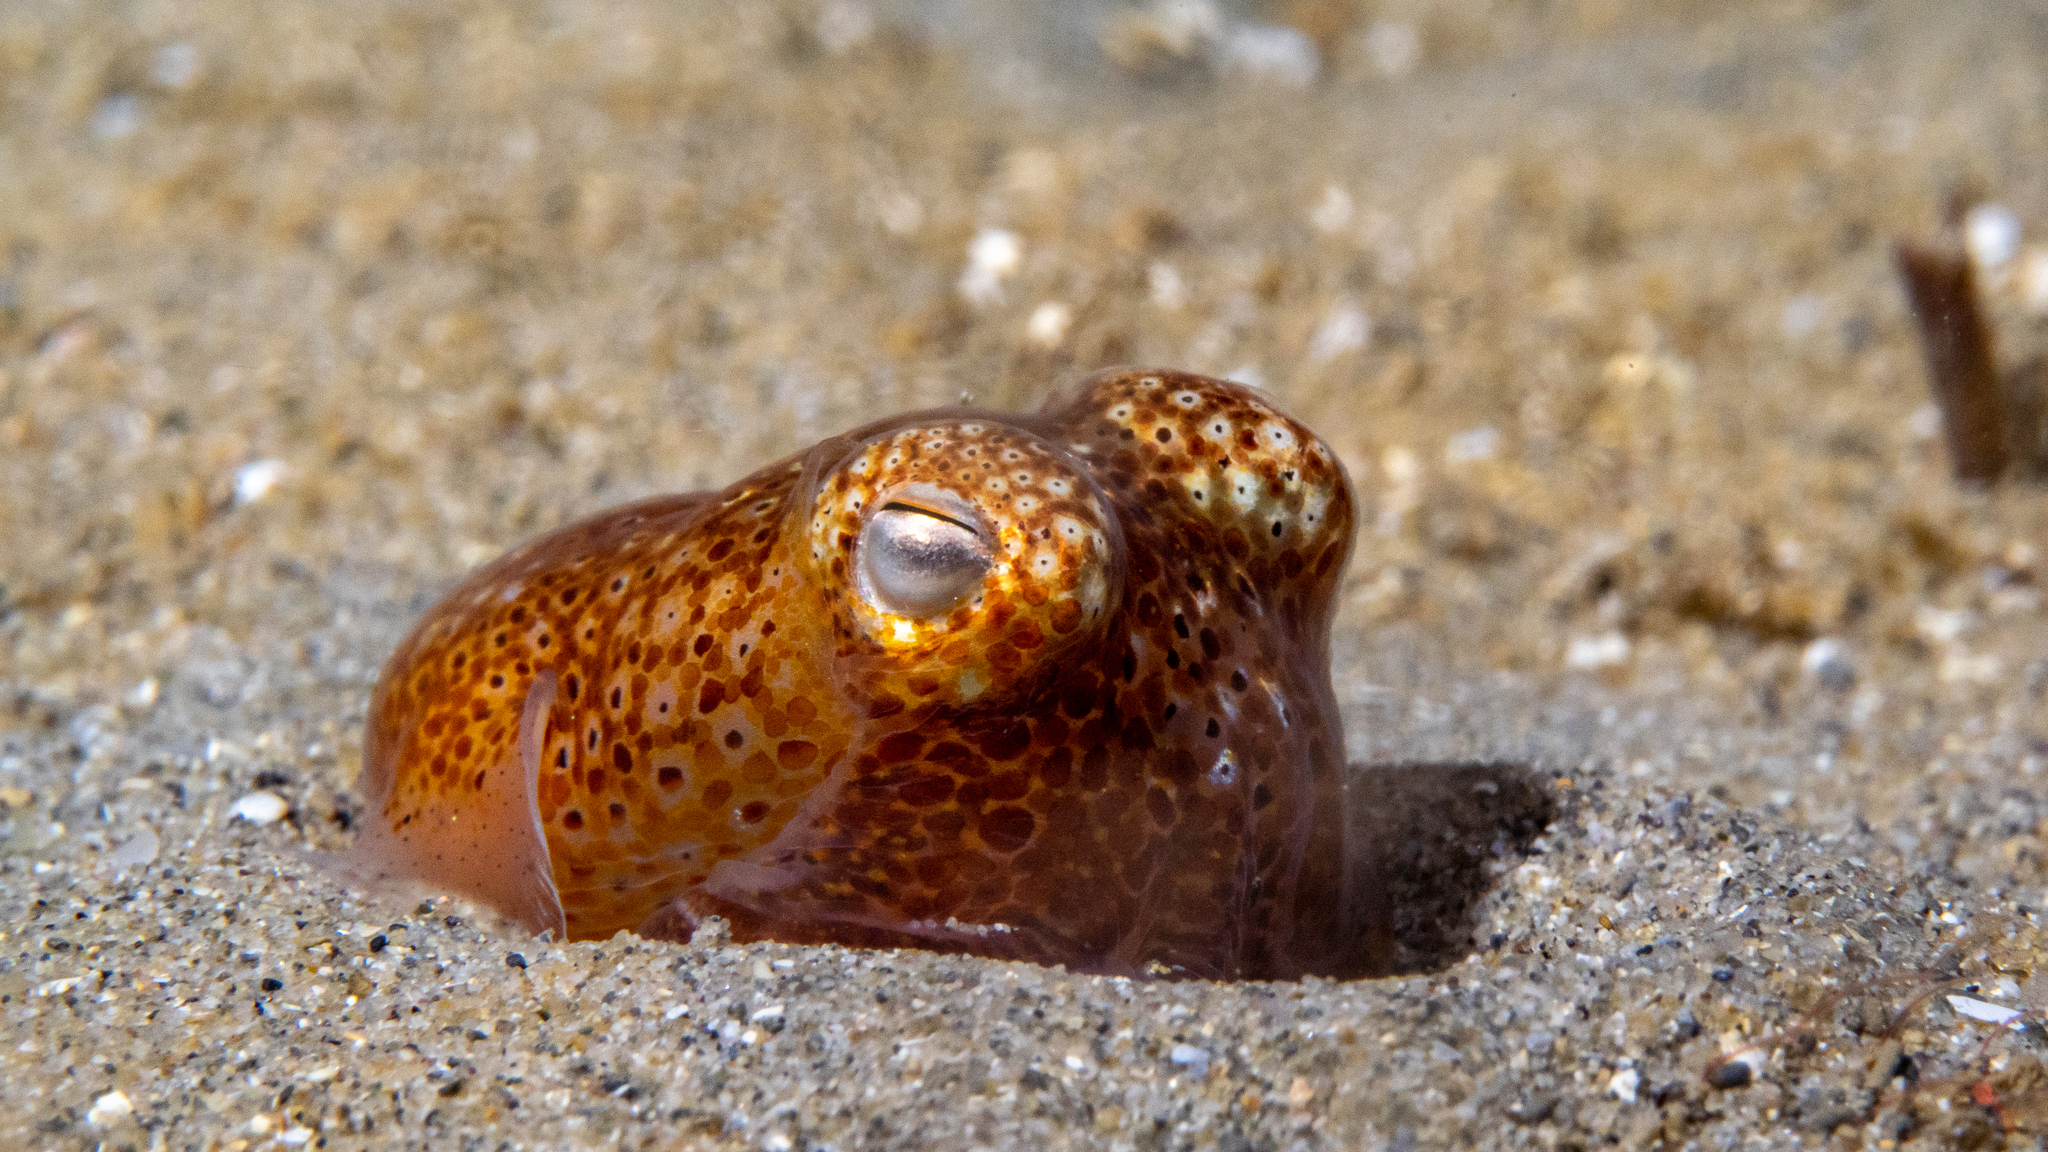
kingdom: Animalia
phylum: Mollusca
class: Cephalopoda
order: Sepiida
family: Sepiadariidae
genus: Sepiadarium
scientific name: Sepiadarium austrinum
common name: Southern bottletail squid
